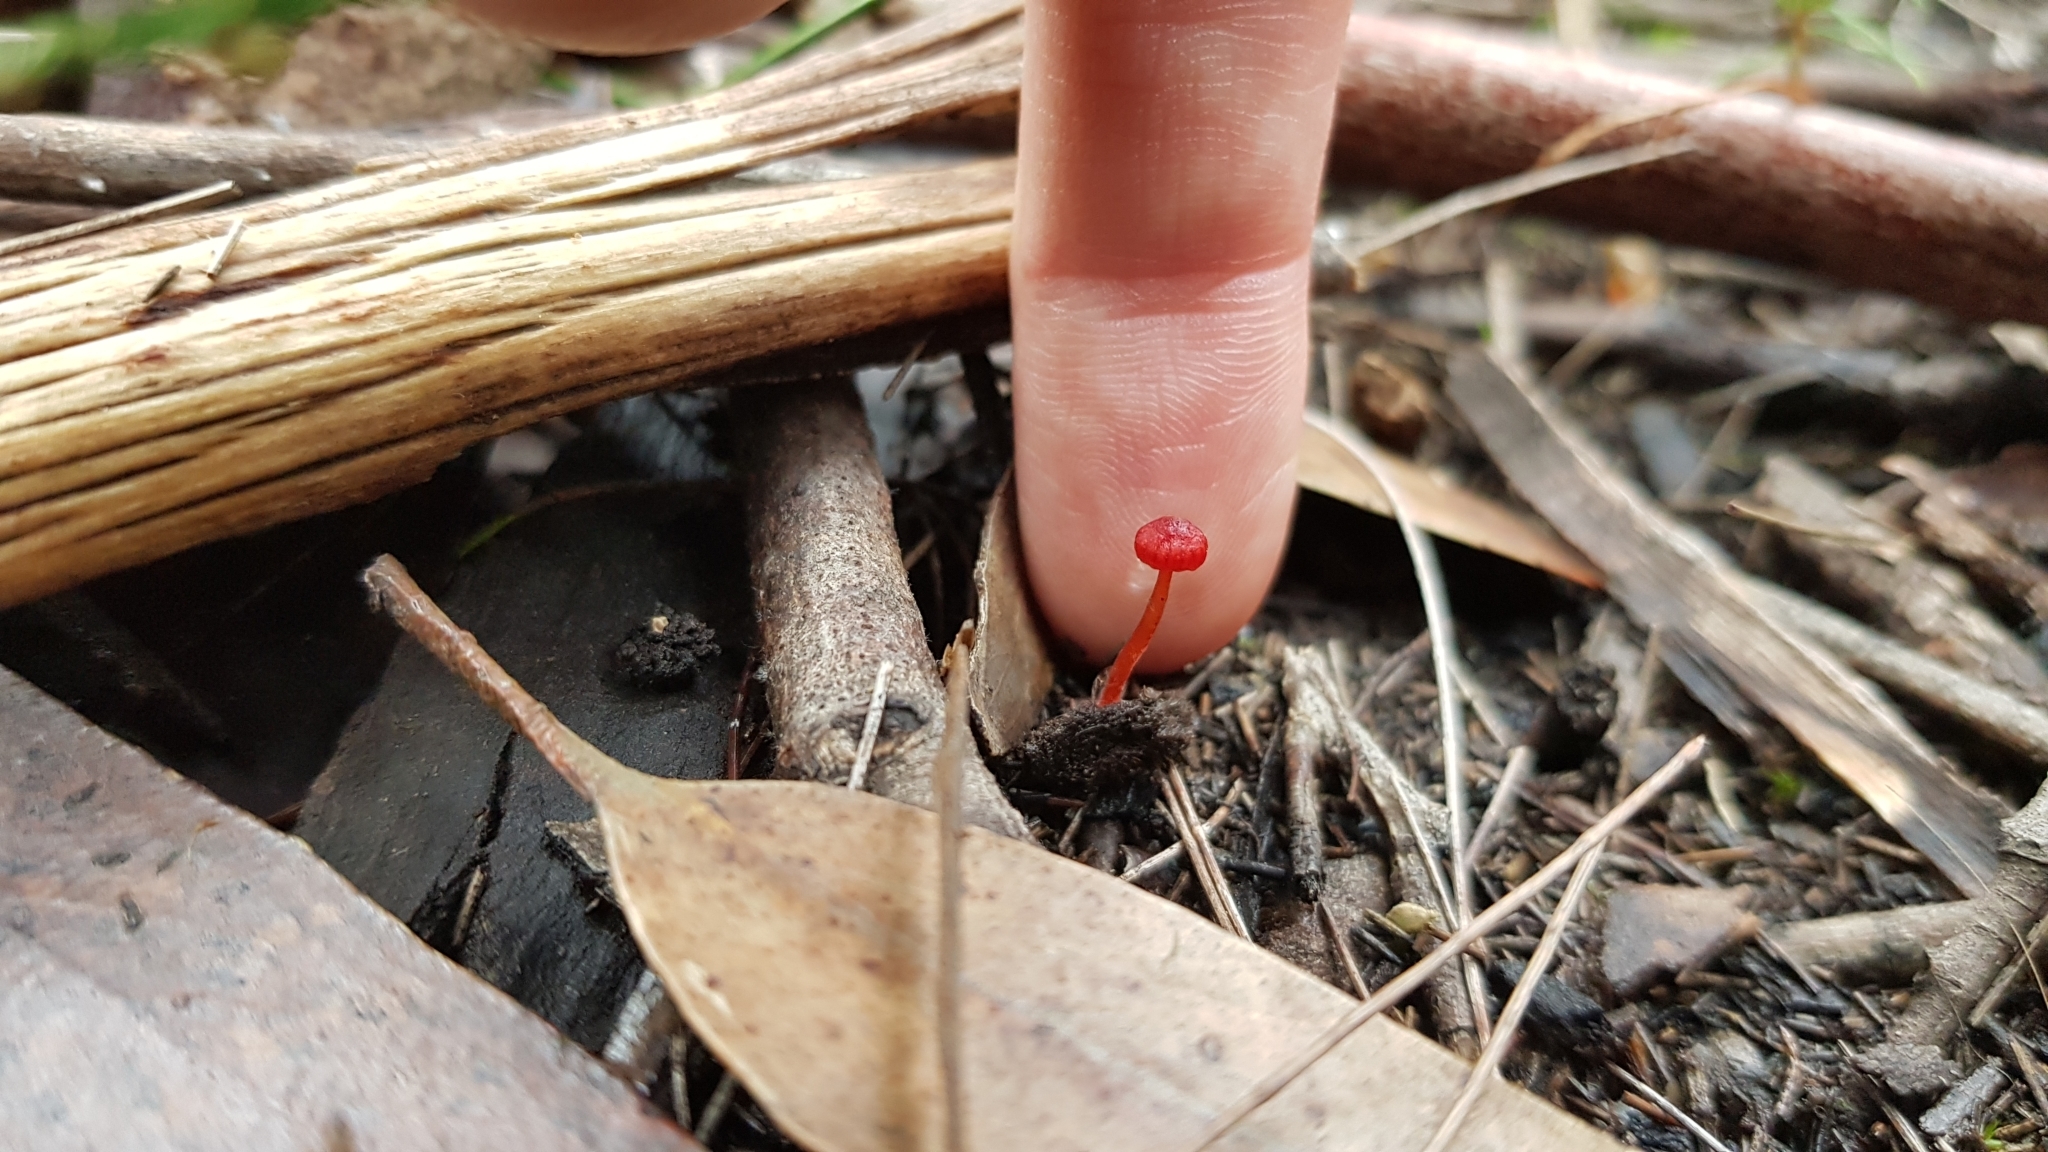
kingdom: Fungi
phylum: Basidiomycota
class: Agaricomycetes
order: Agaricales
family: Mycenaceae
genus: Cruentomycena
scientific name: Cruentomycena viscidocruenta
